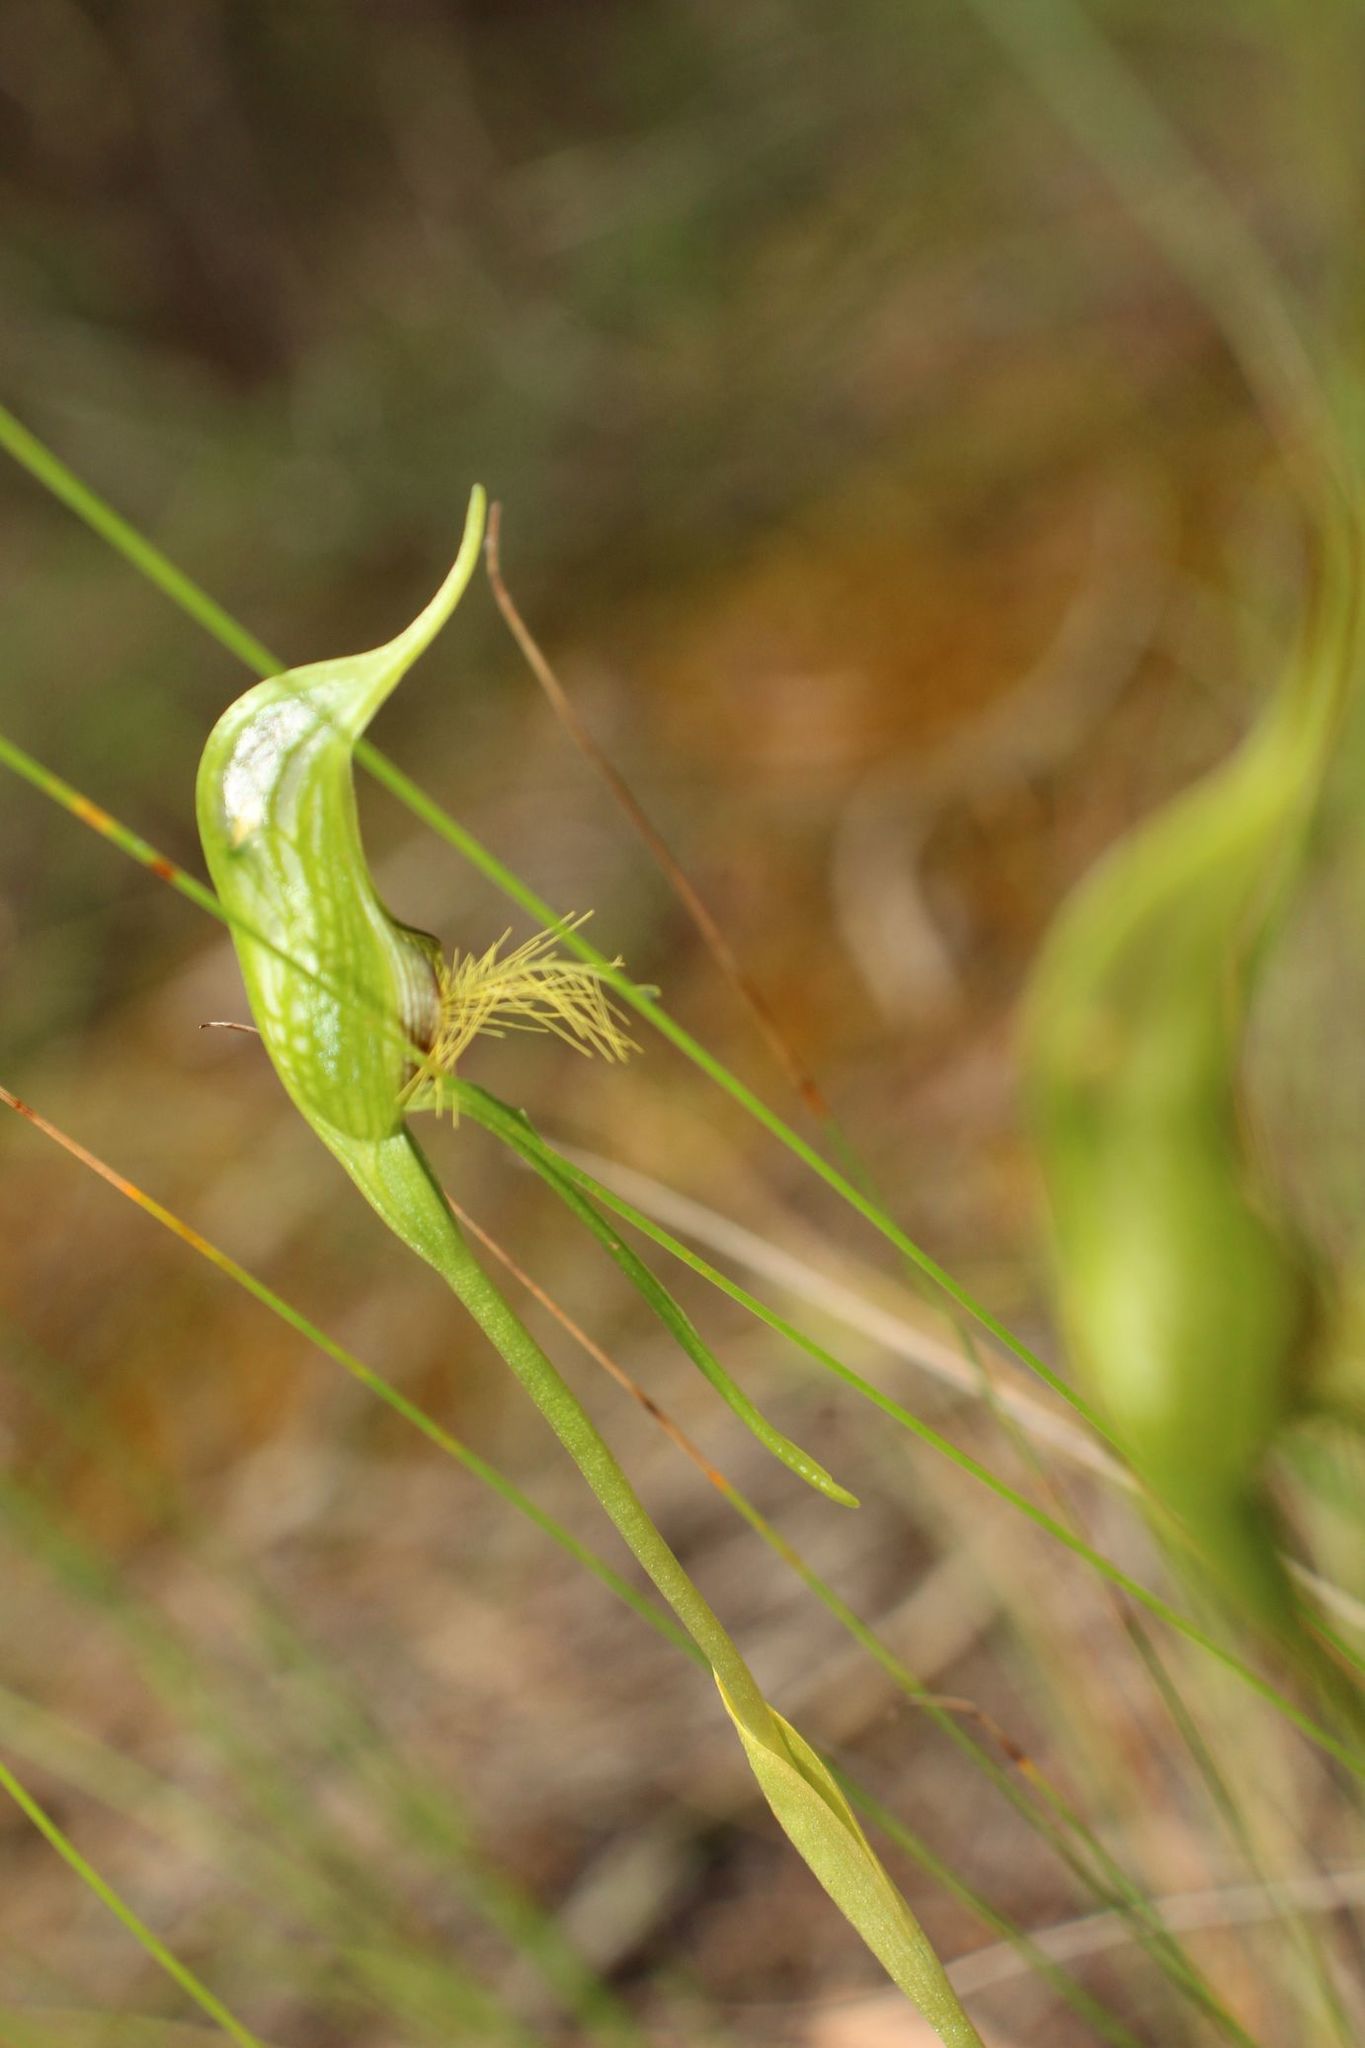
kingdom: Plantae
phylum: Tracheophyta
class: Liliopsida
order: Asparagales
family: Orchidaceae
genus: Pterostylis
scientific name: Pterostylis turfosa
